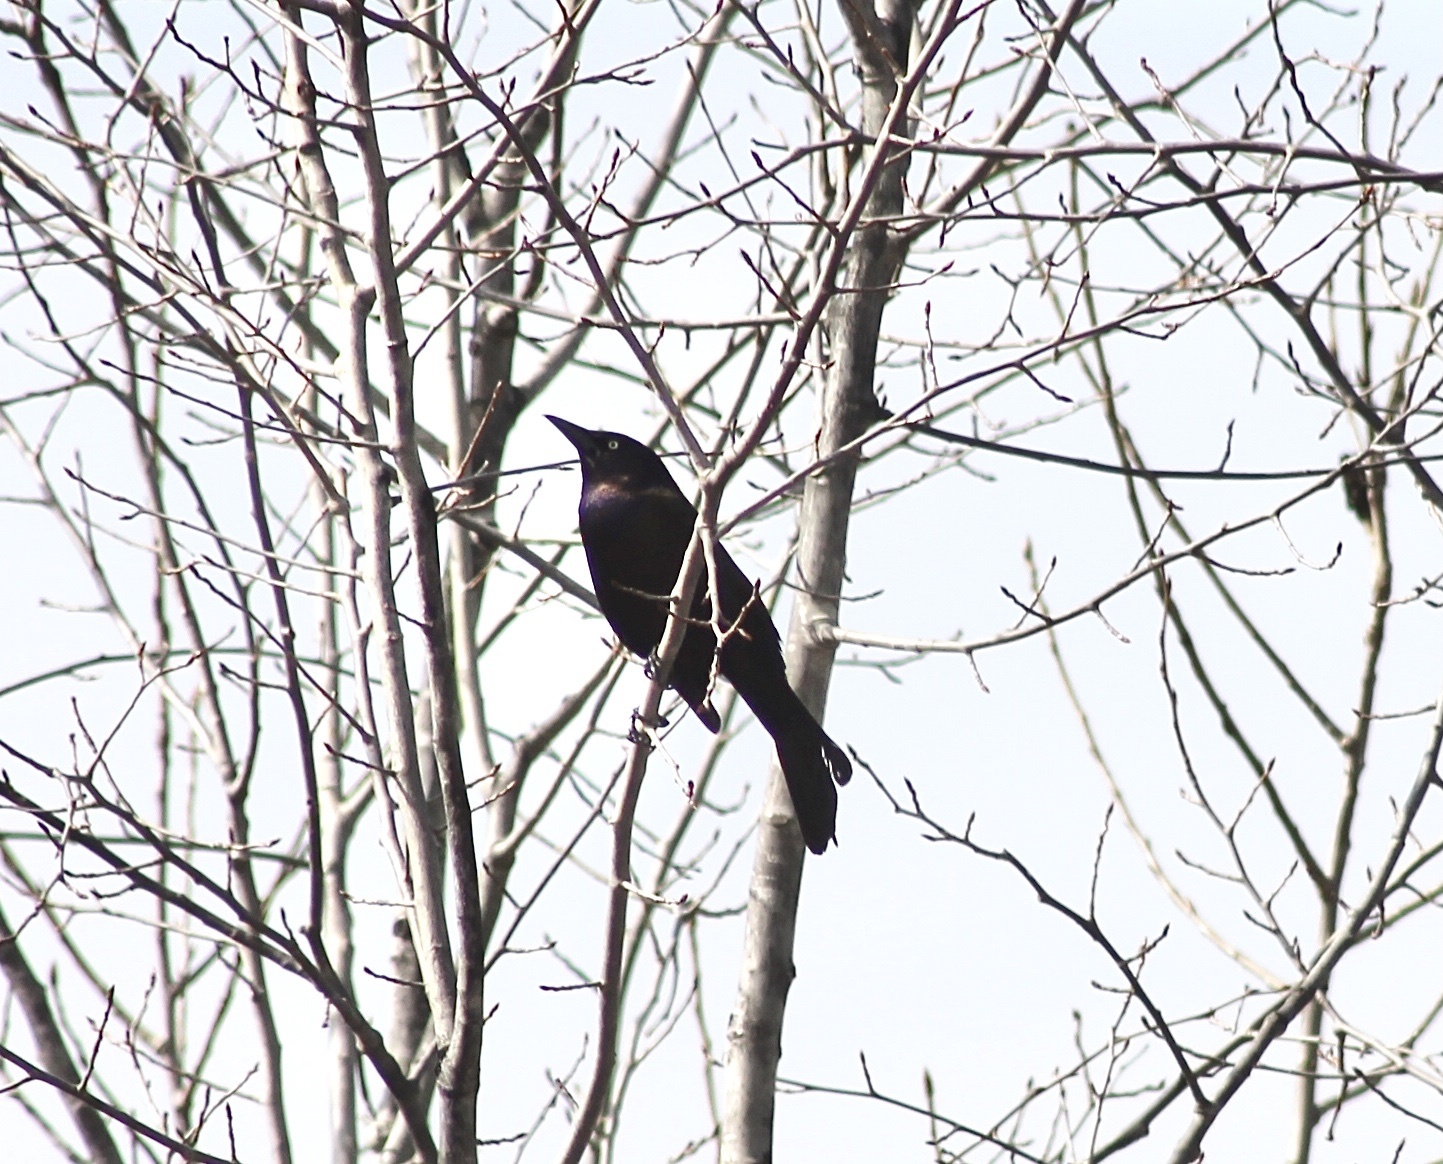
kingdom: Animalia
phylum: Chordata
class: Aves
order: Passeriformes
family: Icteridae
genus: Quiscalus
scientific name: Quiscalus quiscula
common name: Common grackle
